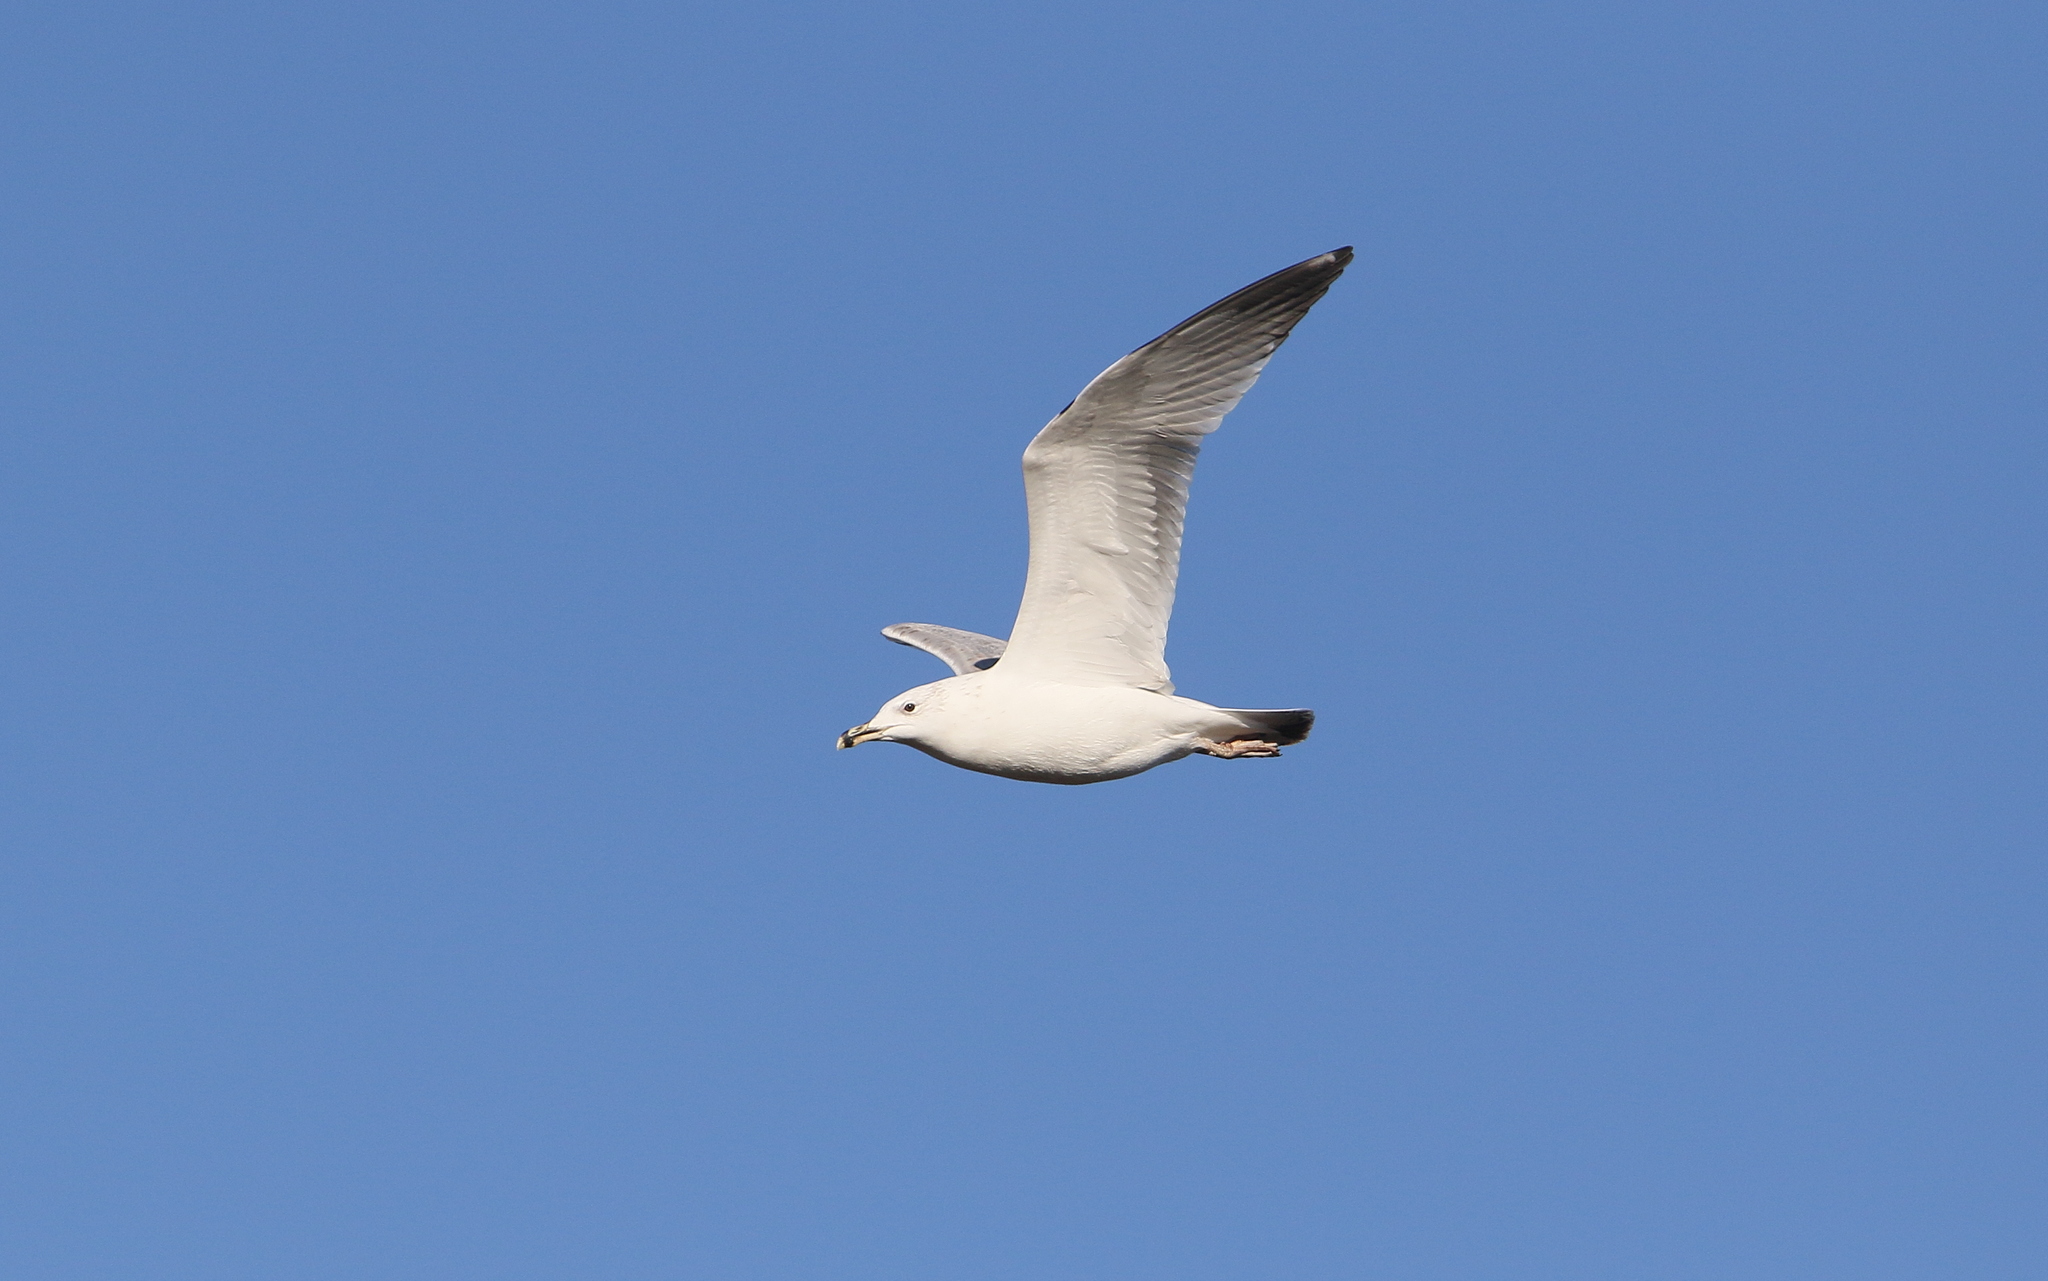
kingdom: Animalia
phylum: Chordata
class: Aves
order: Charadriiformes
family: Laridae
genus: Larus
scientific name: Larus cachinnans
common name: Caspian gull
